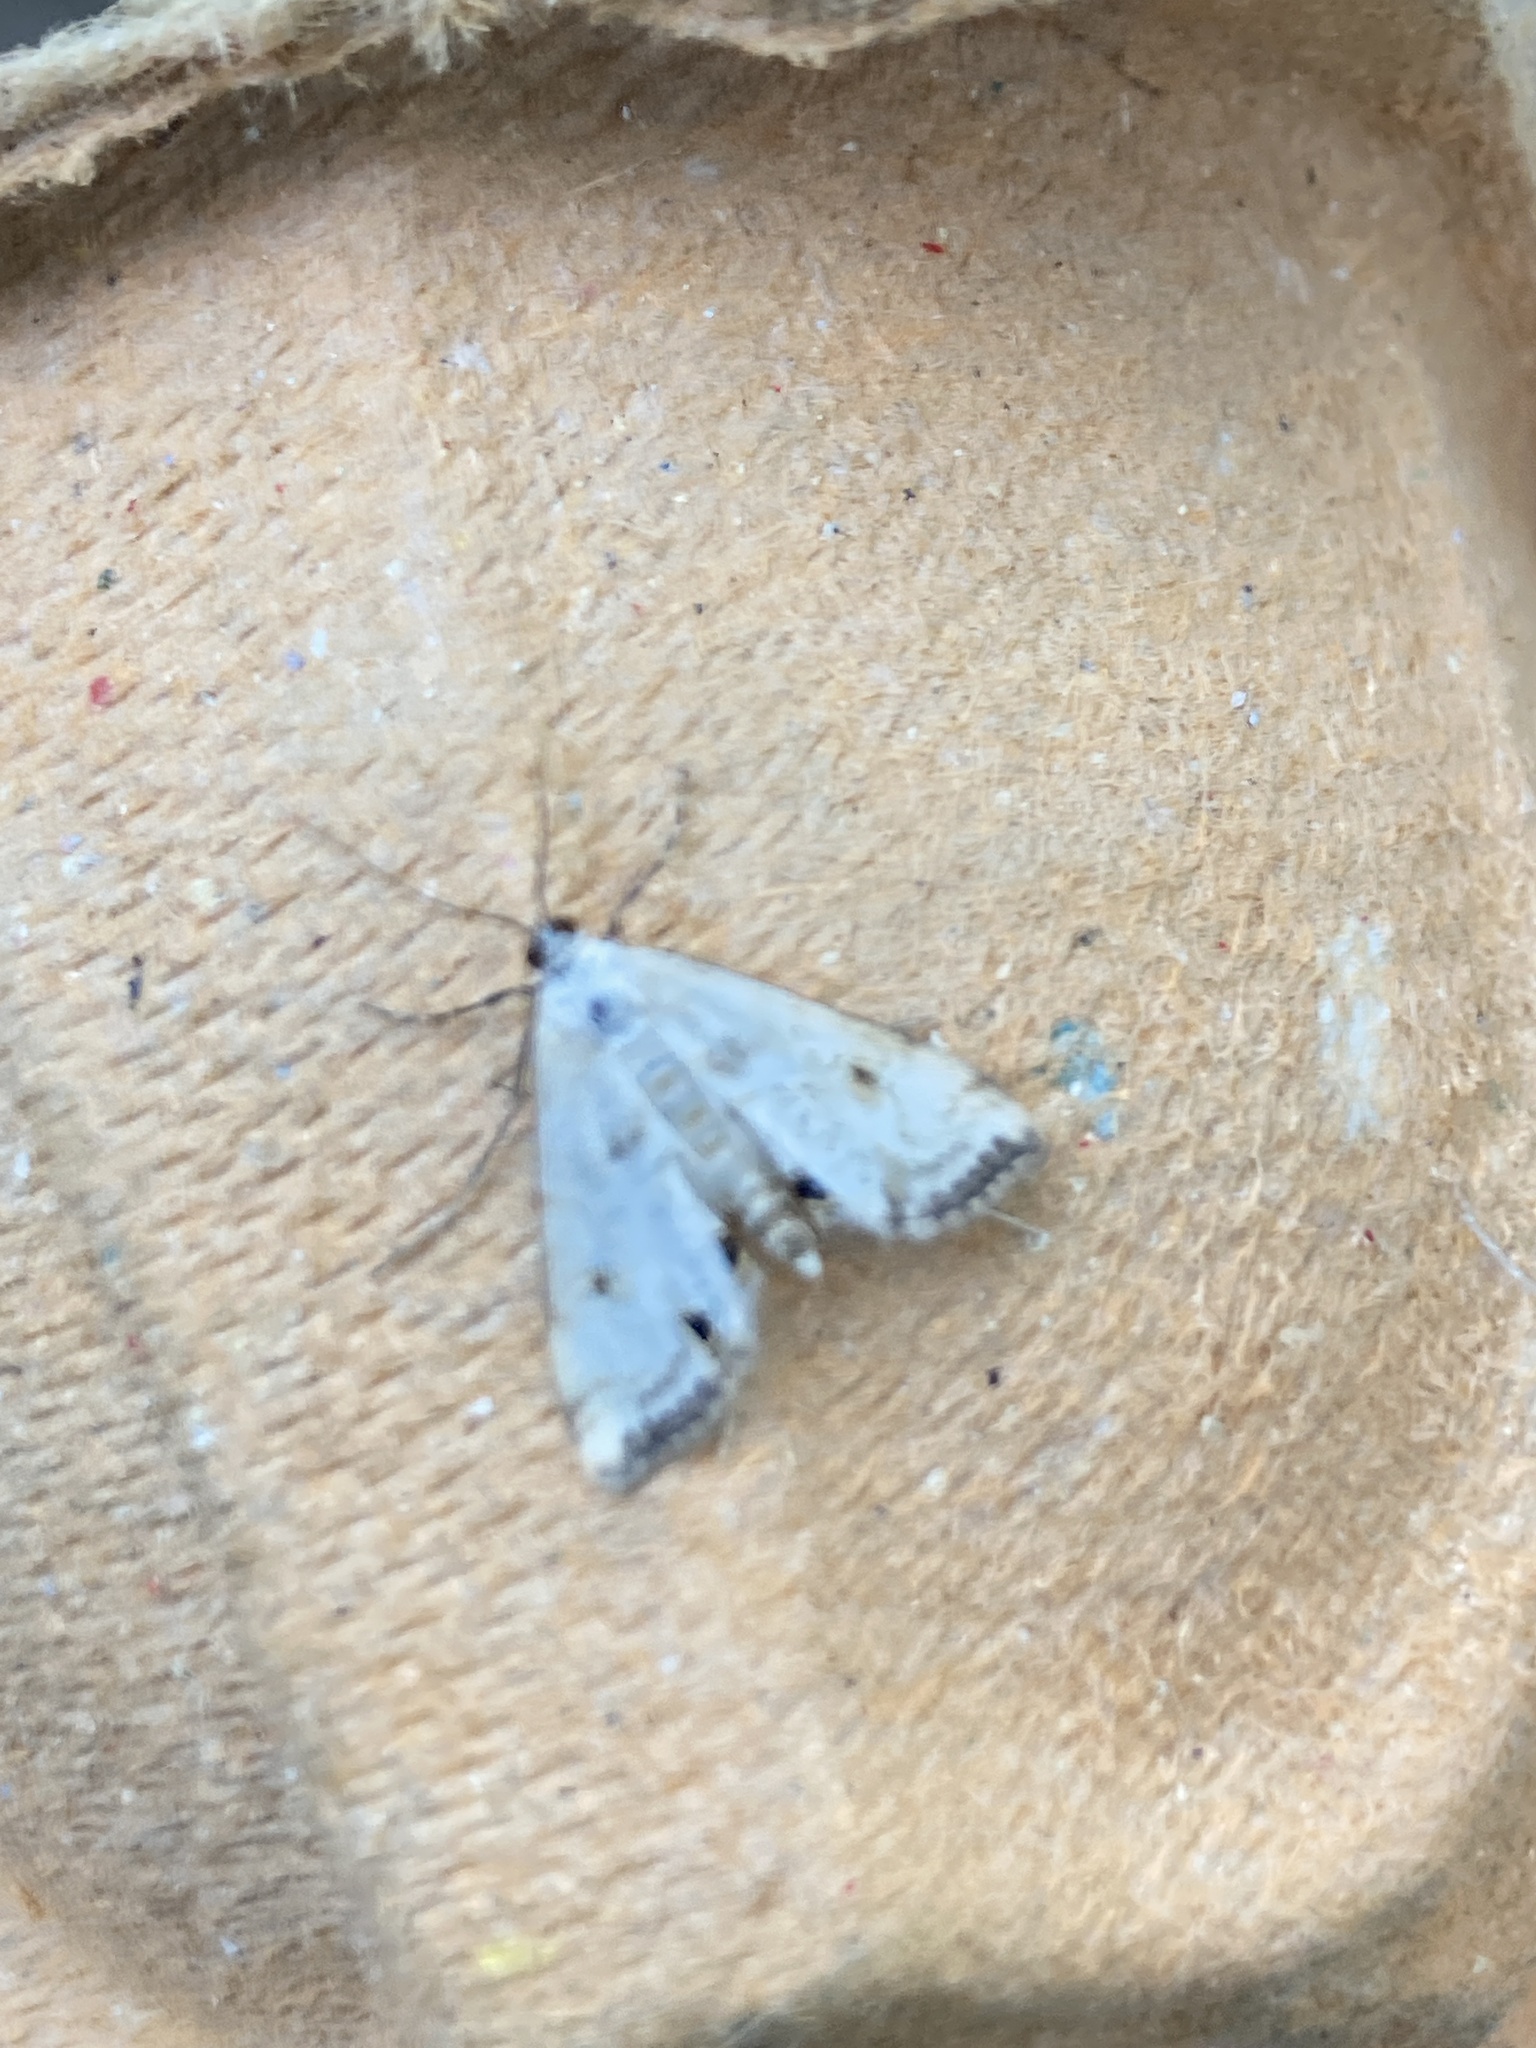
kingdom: Animalia
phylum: Arthropoda
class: Insecta
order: Lepidoptera
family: Crambidae
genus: Cataclysta
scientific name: Cataclysta lemnata
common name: Small china-mark
